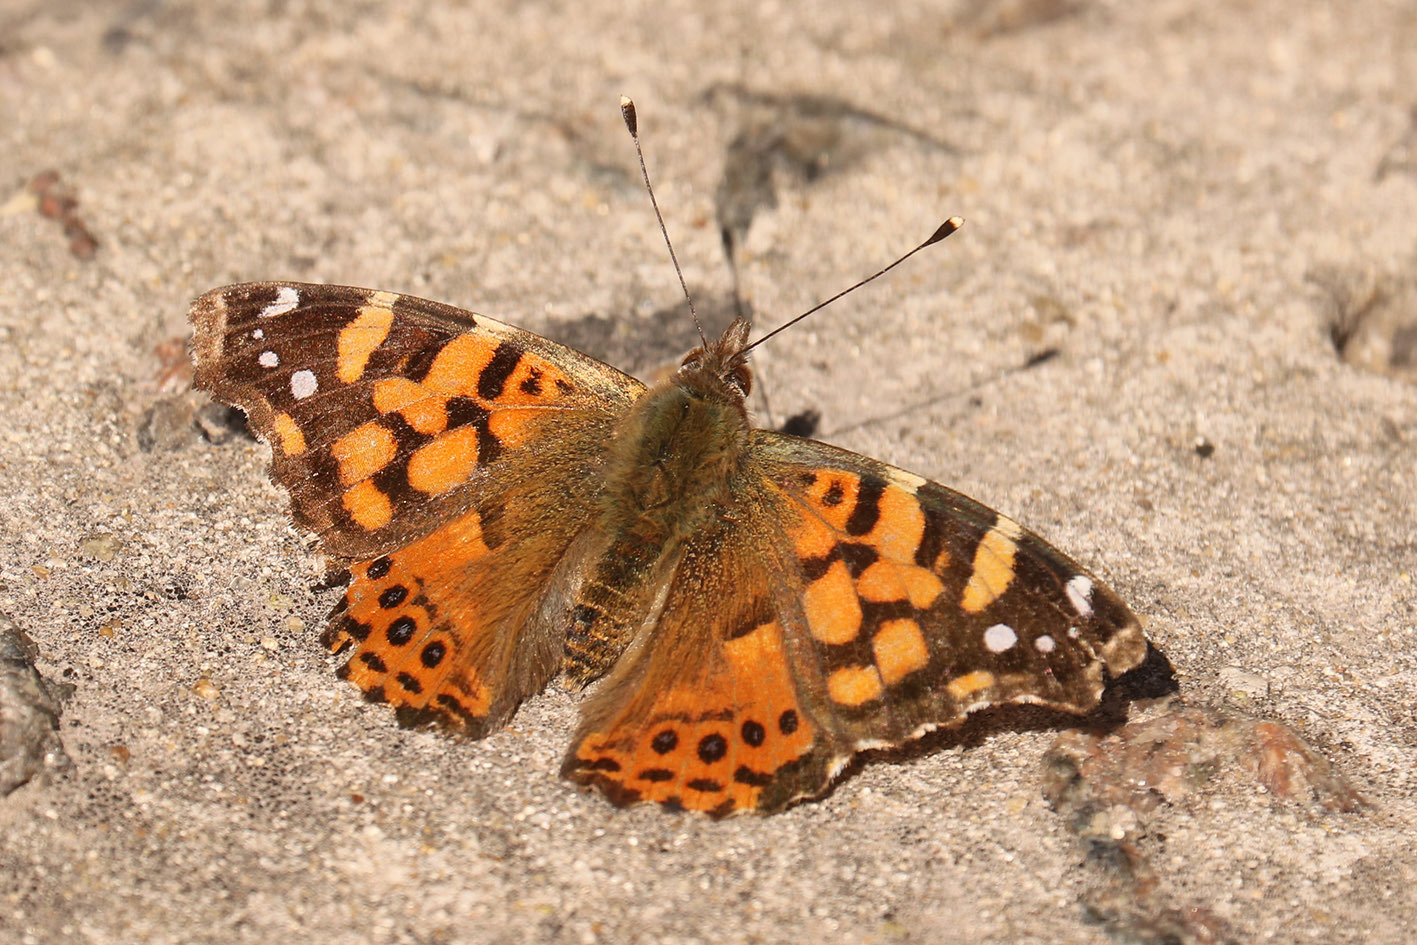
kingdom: Animalia
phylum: Arthropoda
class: Insecta
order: Lepidoptera
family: Nymphalidae
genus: Vanessa
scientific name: Vanessa carye
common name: Subtropical lady
